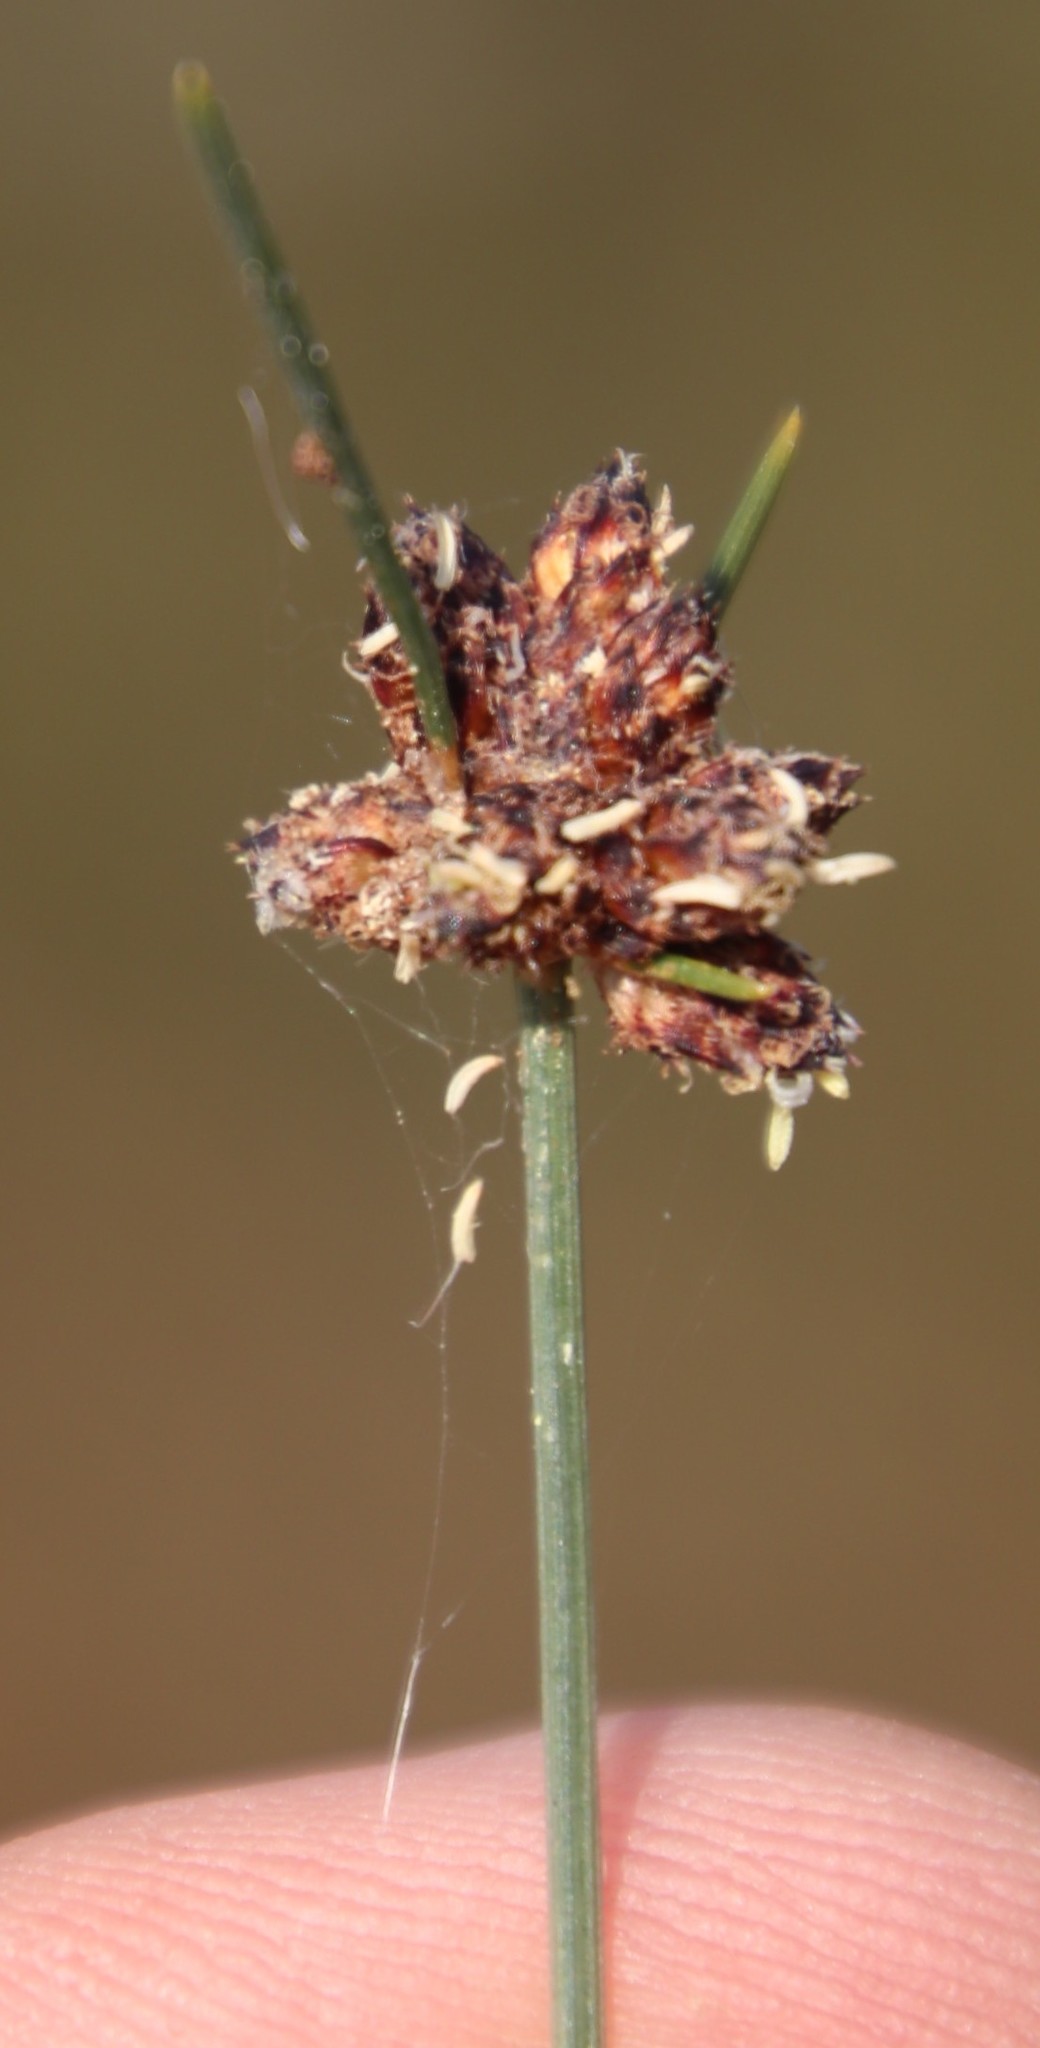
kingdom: Plantae
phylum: Tracheophyta
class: Liliopsida
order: Poales
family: Cyperaceae
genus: Ficinia
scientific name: Ficinia ecklonea
